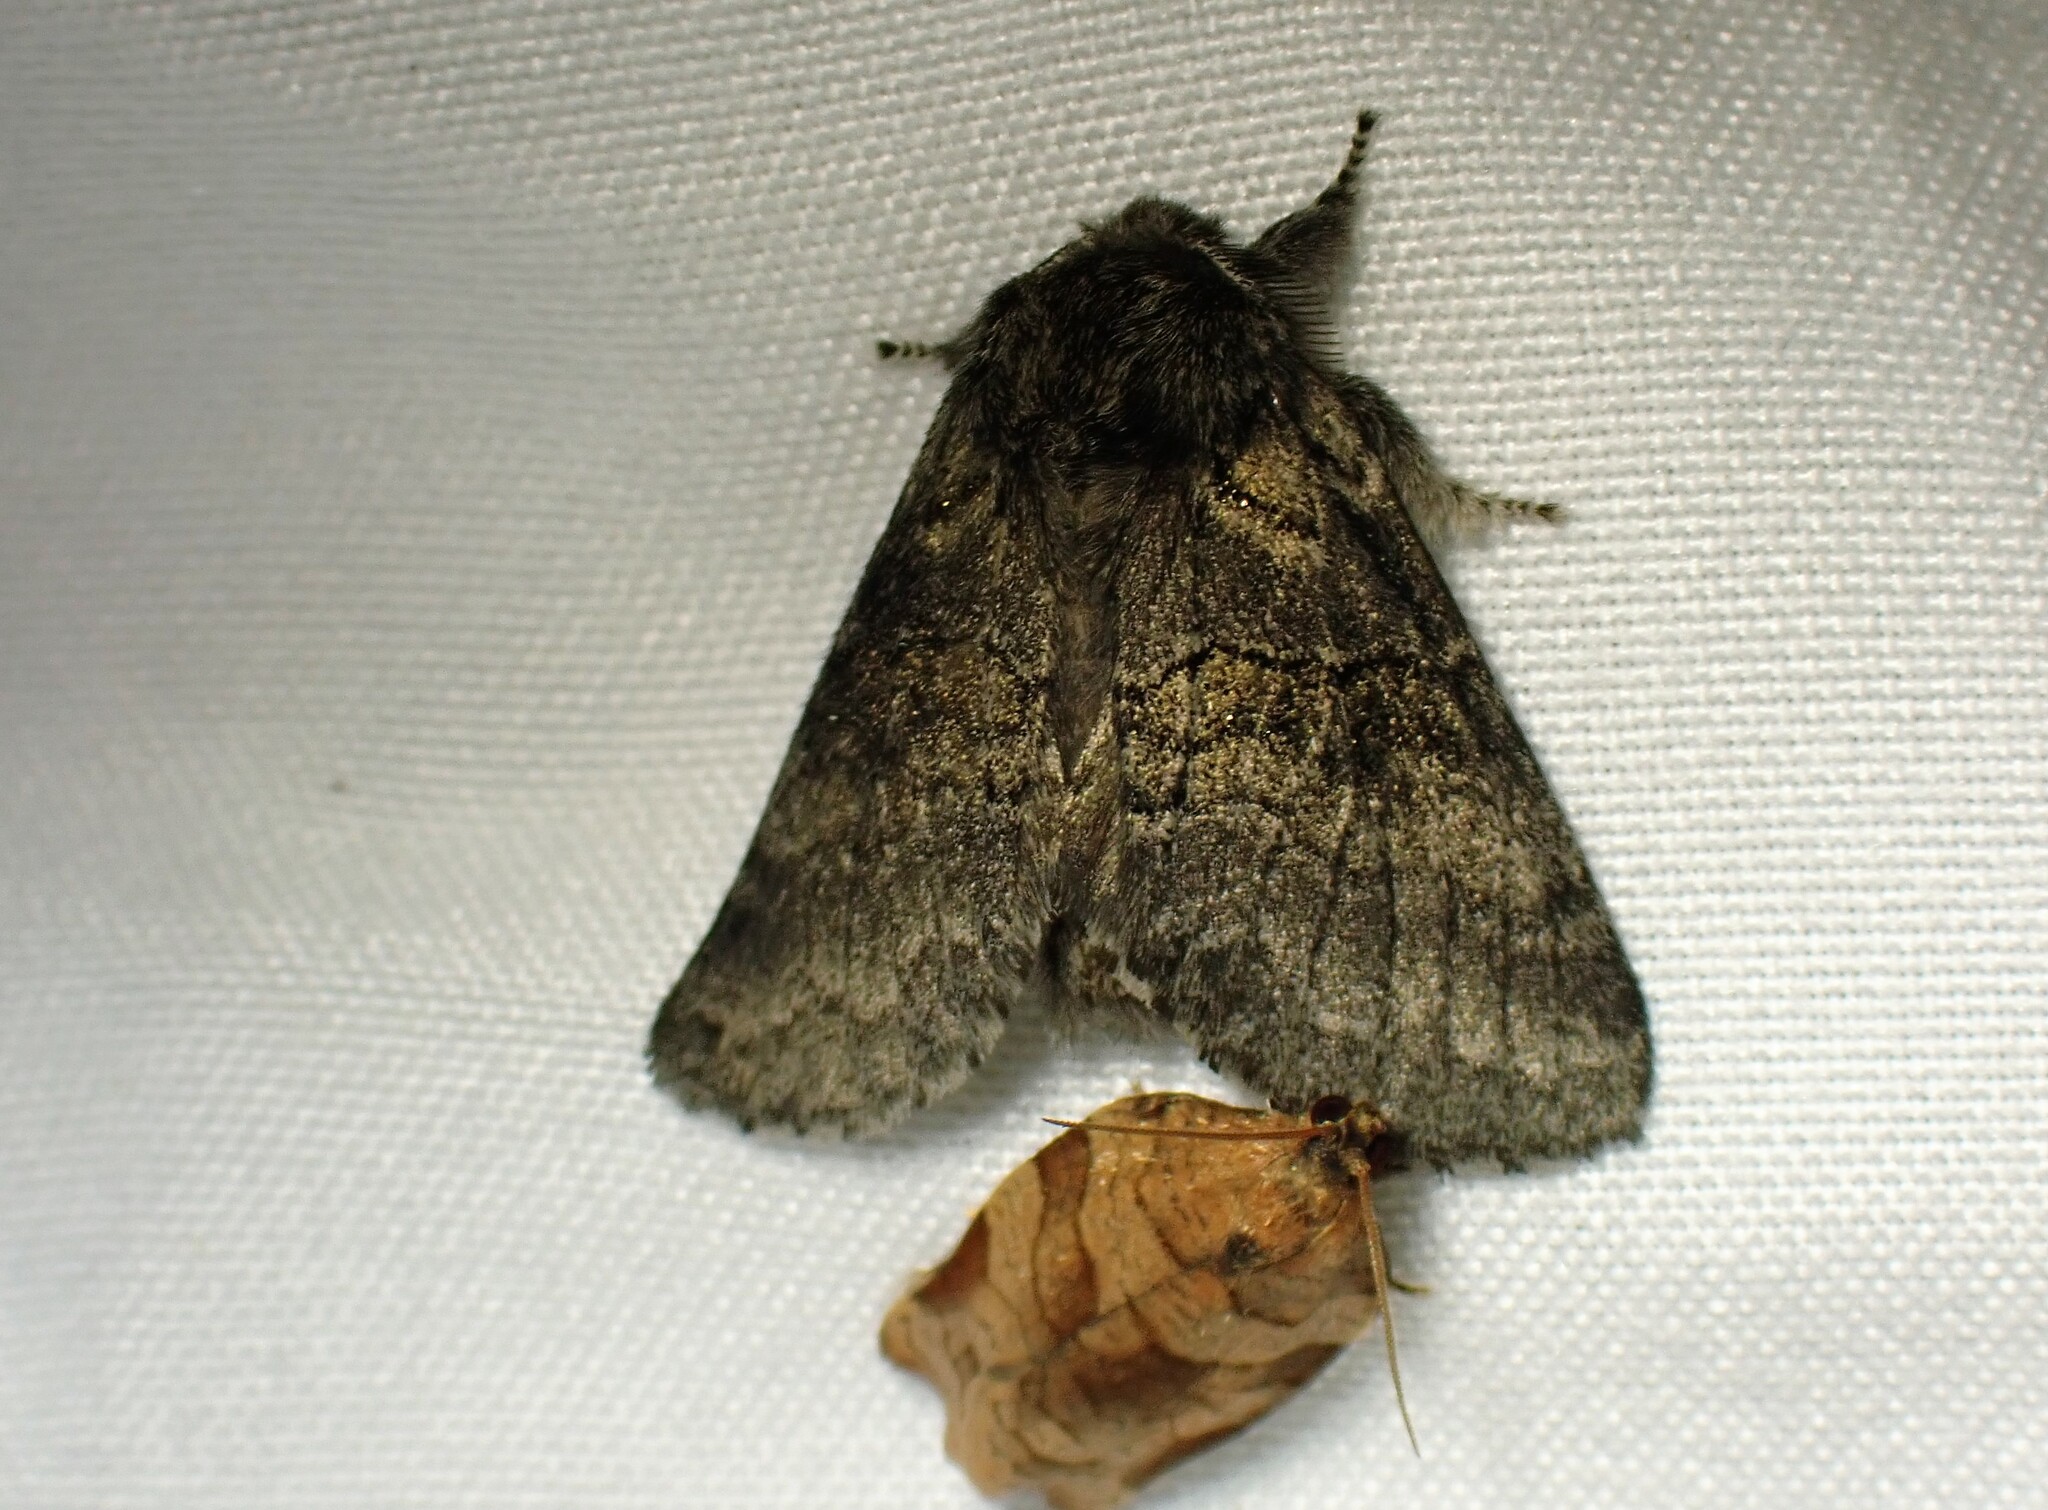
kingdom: Animalia
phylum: Arthropoda
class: Insecta
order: Lepidoptera
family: Notodontidae
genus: Gluphisia
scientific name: Gluphisia septentrionis
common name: Common gluphisia
